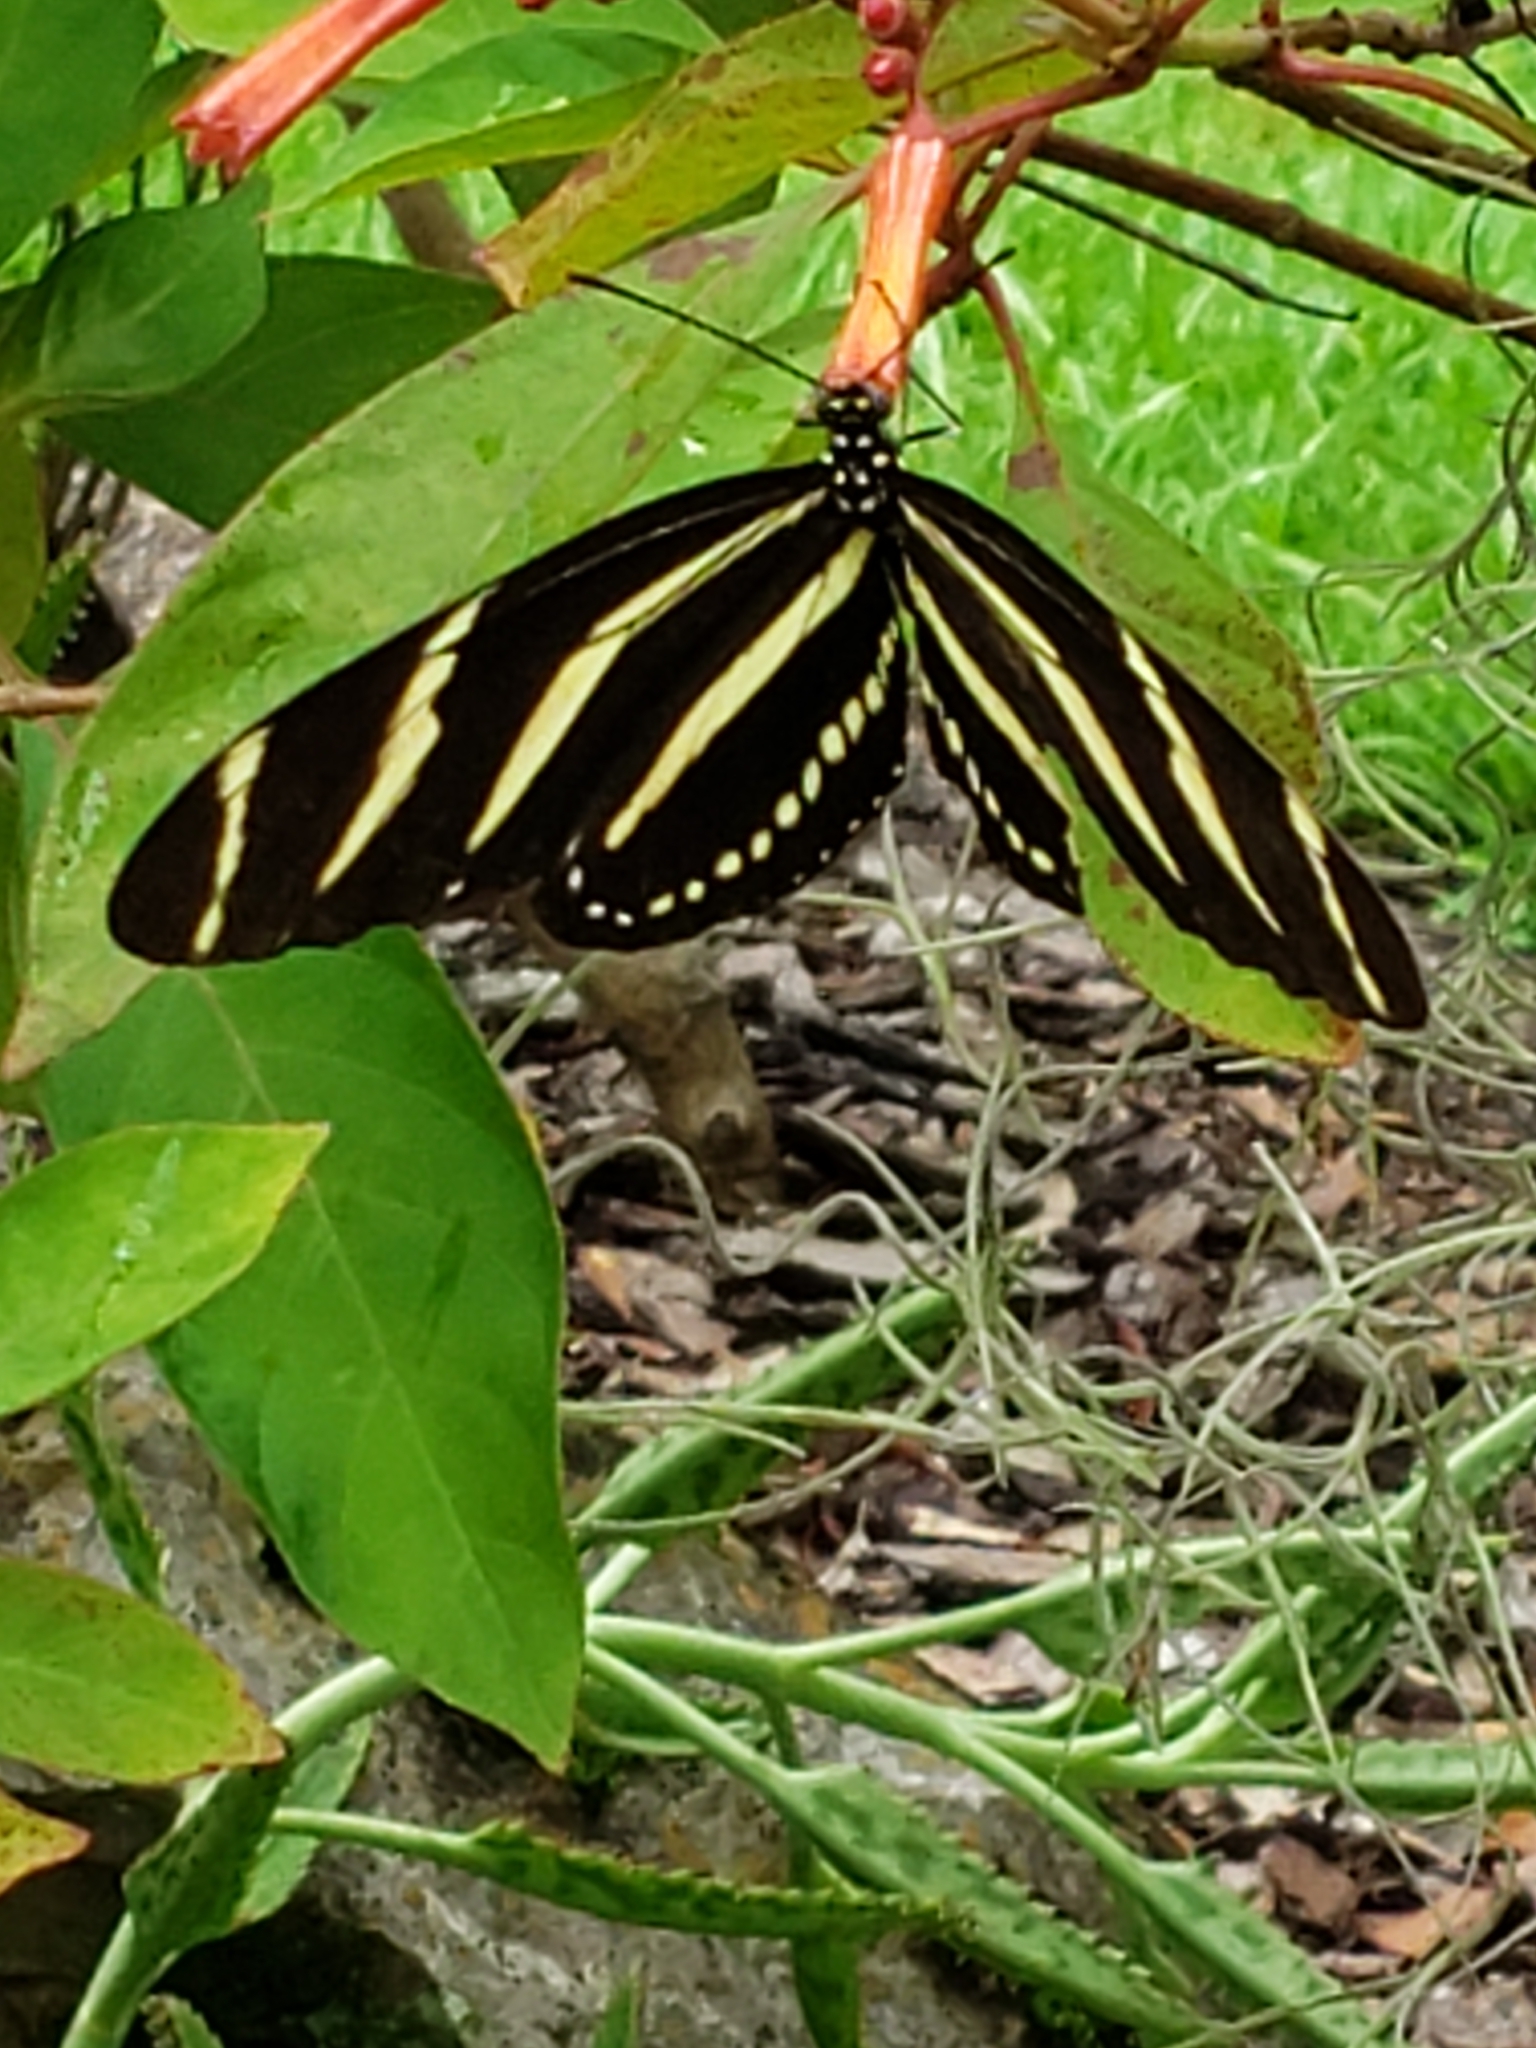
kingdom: Animalia
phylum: Arthropoda
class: Insecta
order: Lepidoptera
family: Nymphalidae
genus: Heliconius
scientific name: Heliconius charithonia
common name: Zebra long wing
